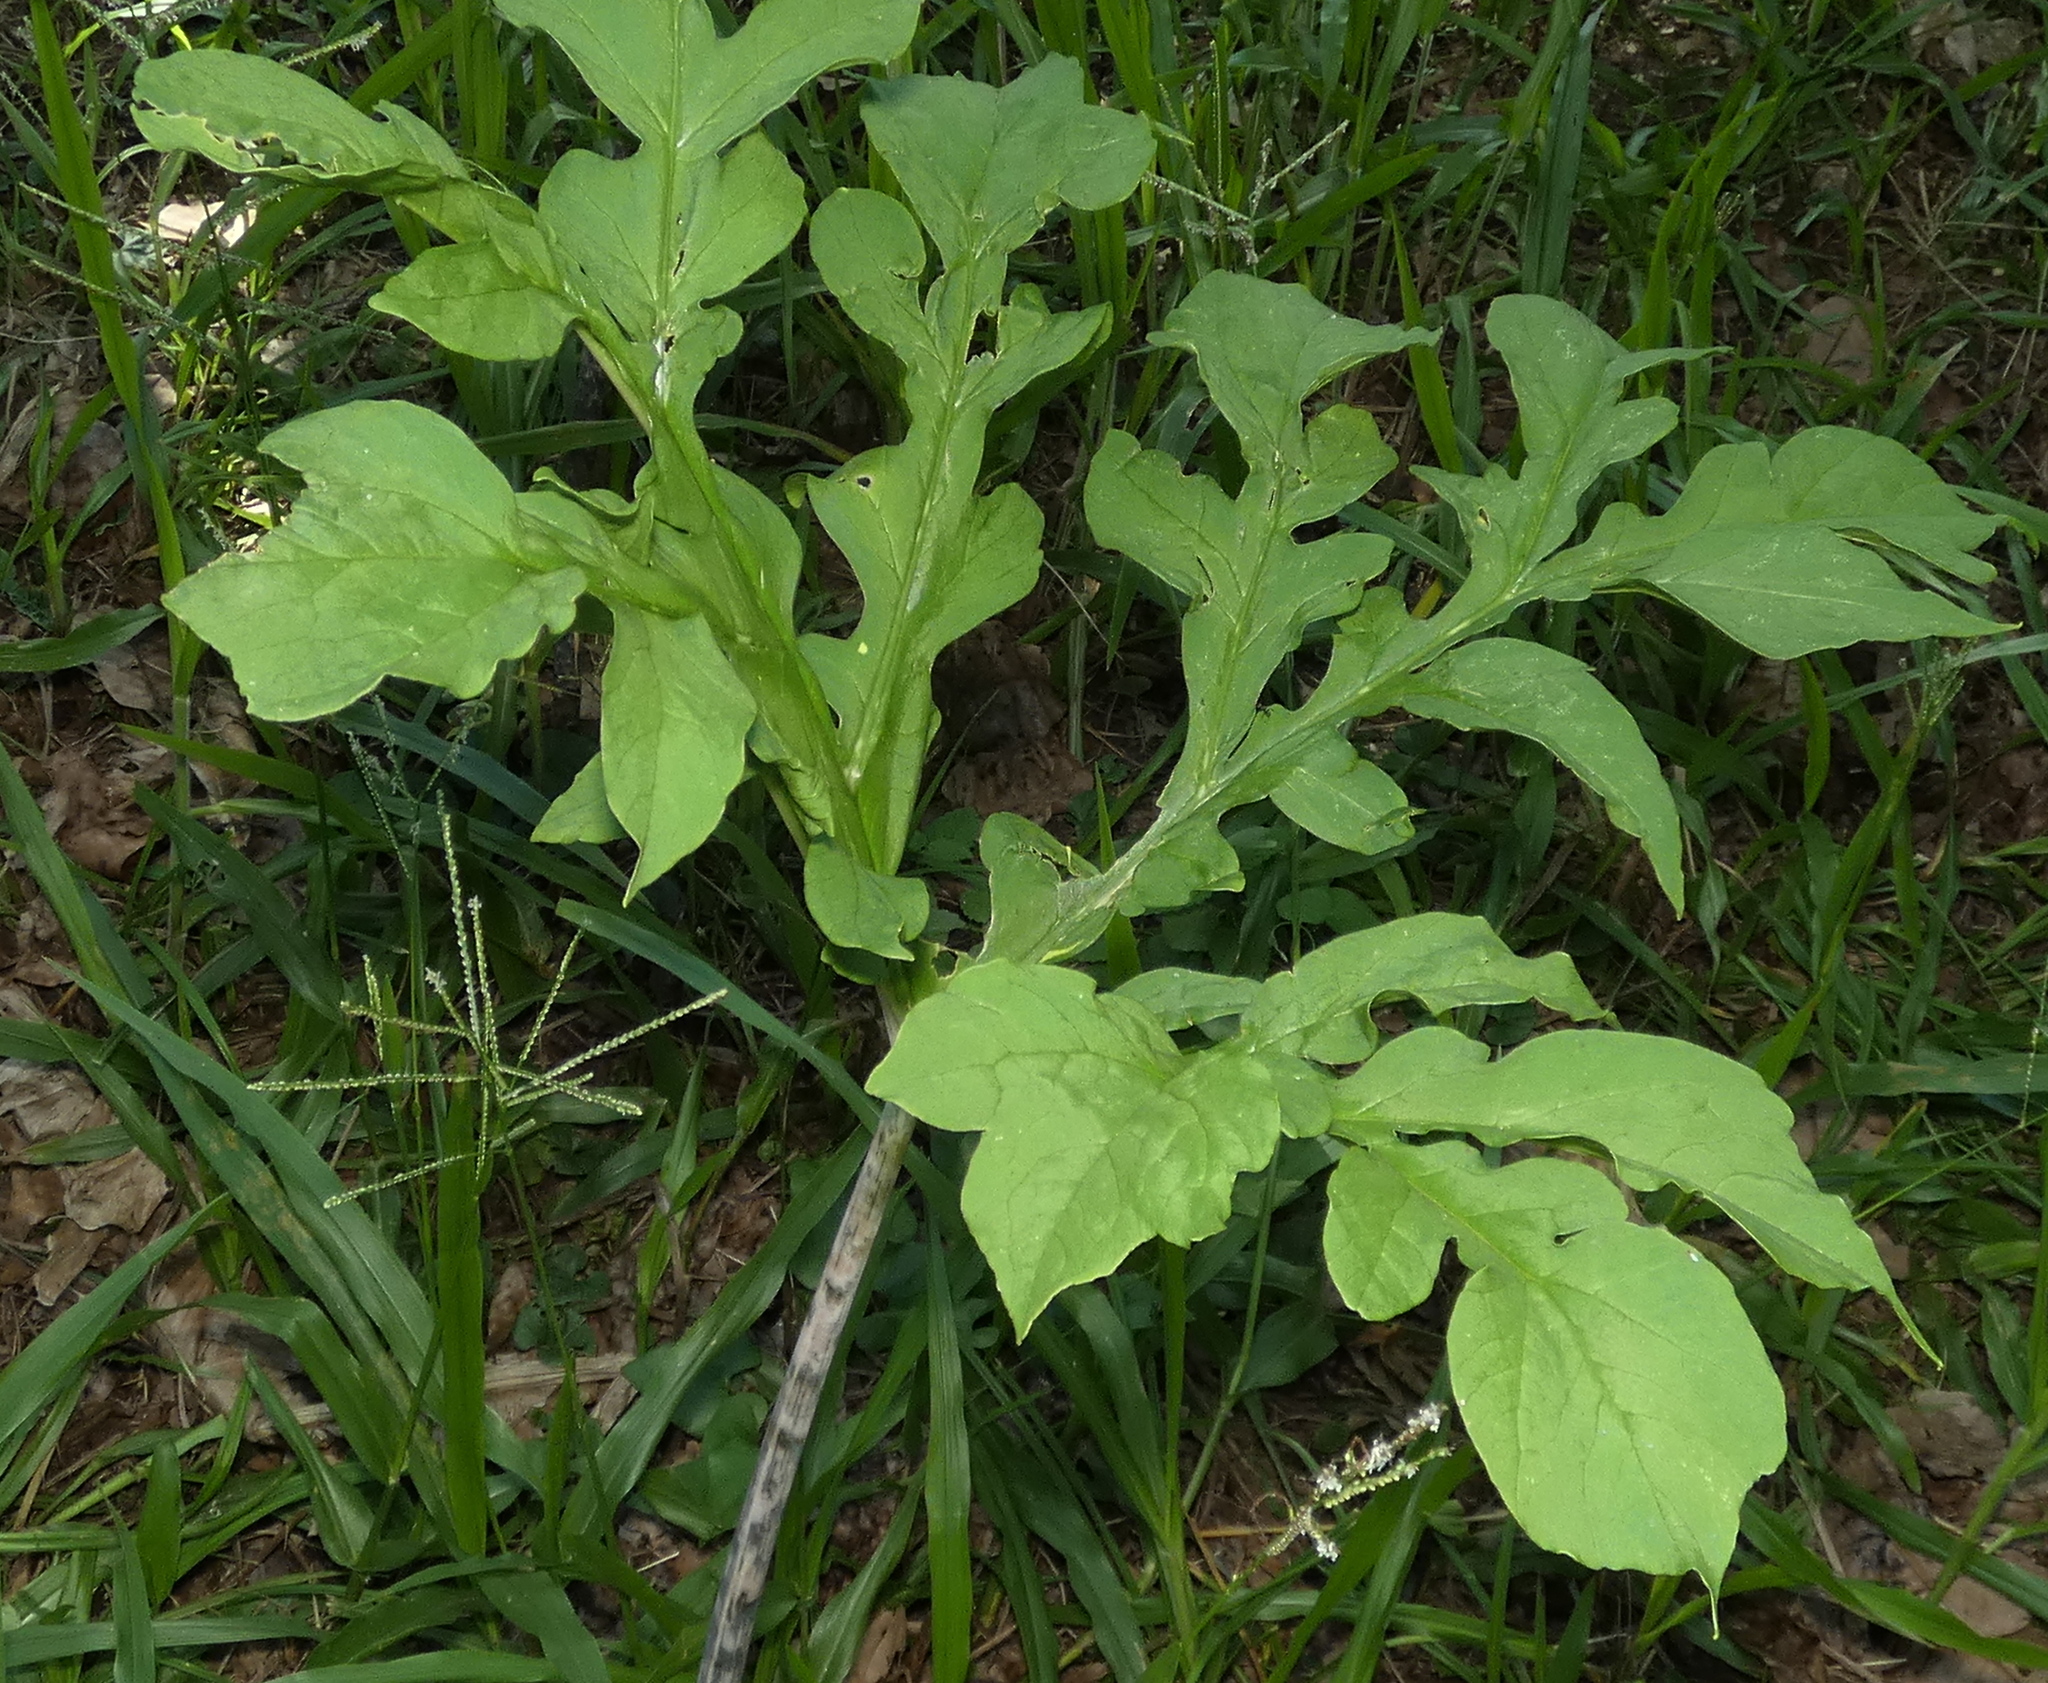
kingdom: Plantae
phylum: Tracheophyta
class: Liliopsida
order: Alismatales
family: Araceae
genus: Taccarum
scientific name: Taccarum ulei
